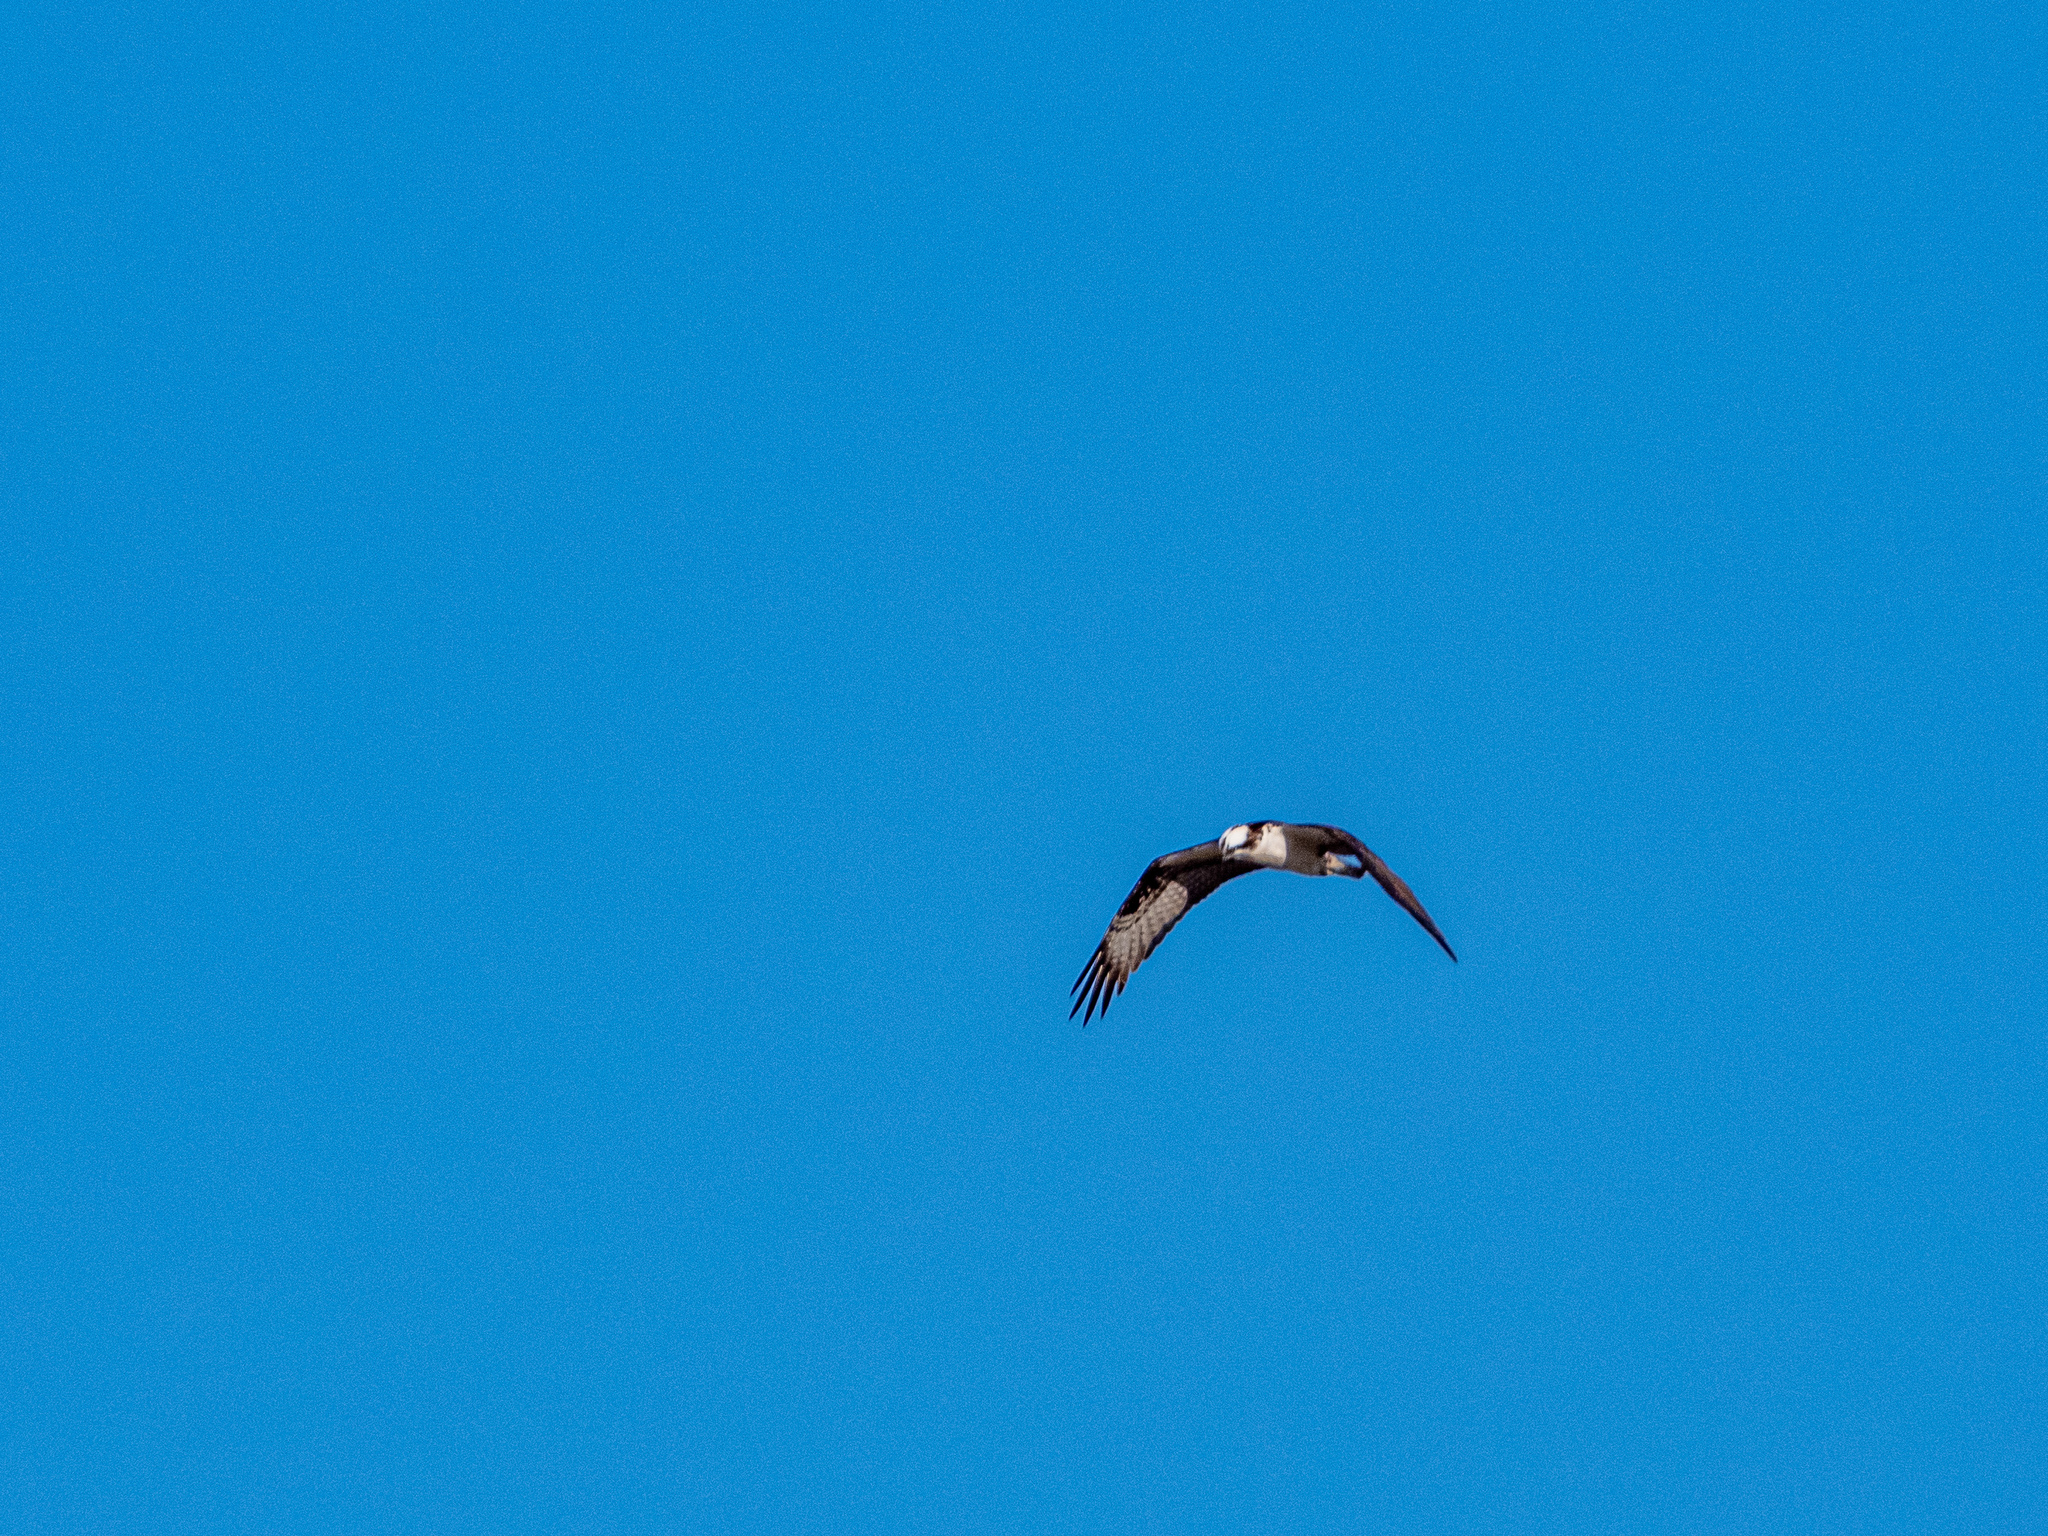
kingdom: Animalia
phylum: Chordata
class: Aves
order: Accipitriformes
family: Pandionidae
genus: Pandion
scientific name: Pandion haliaetus
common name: Osprey
